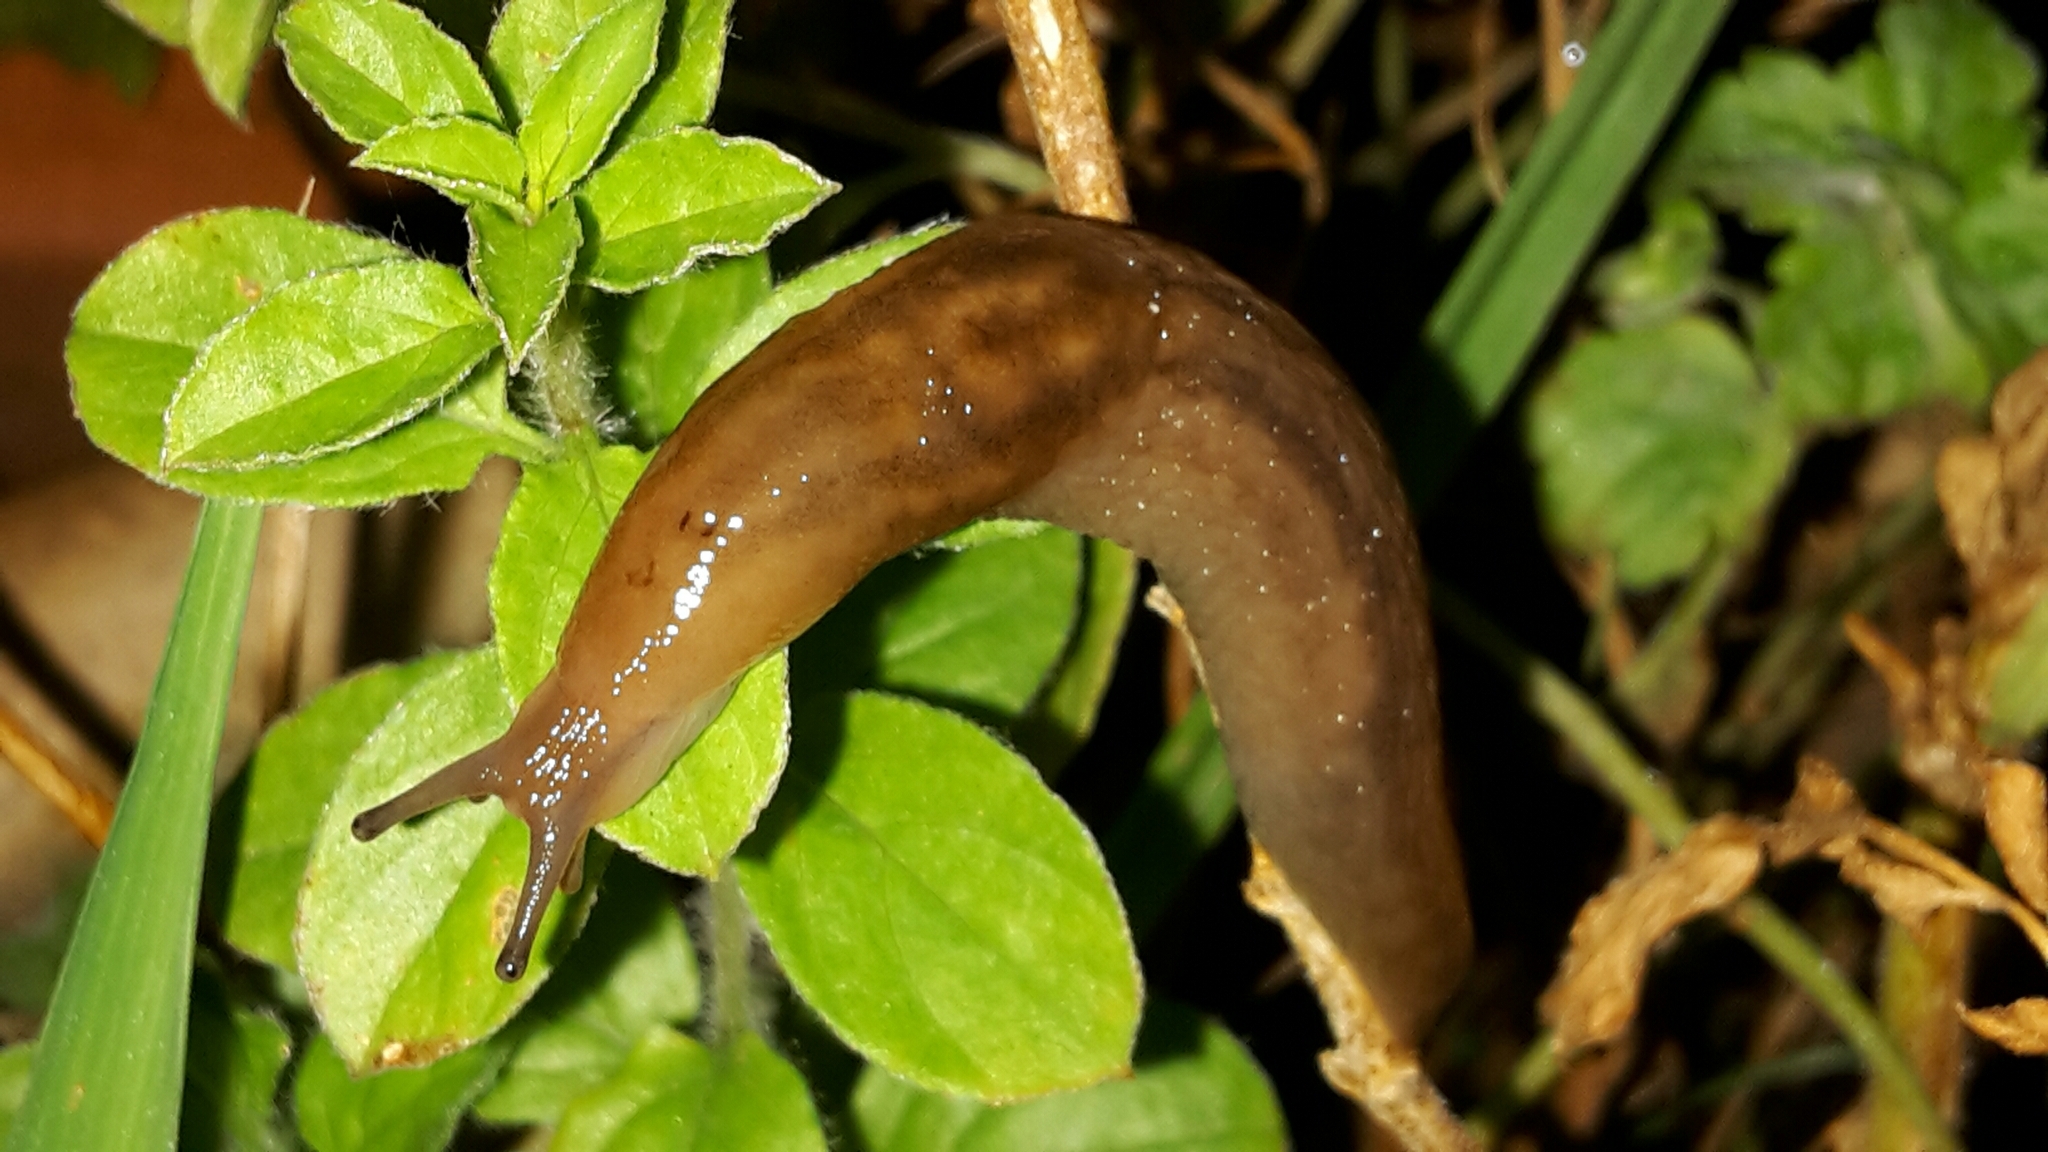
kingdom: Animalia
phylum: Mollusca
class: Gastropoda
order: Stylommatophora
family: Limacidae
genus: Ambigolimax
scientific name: Ambigolimax
